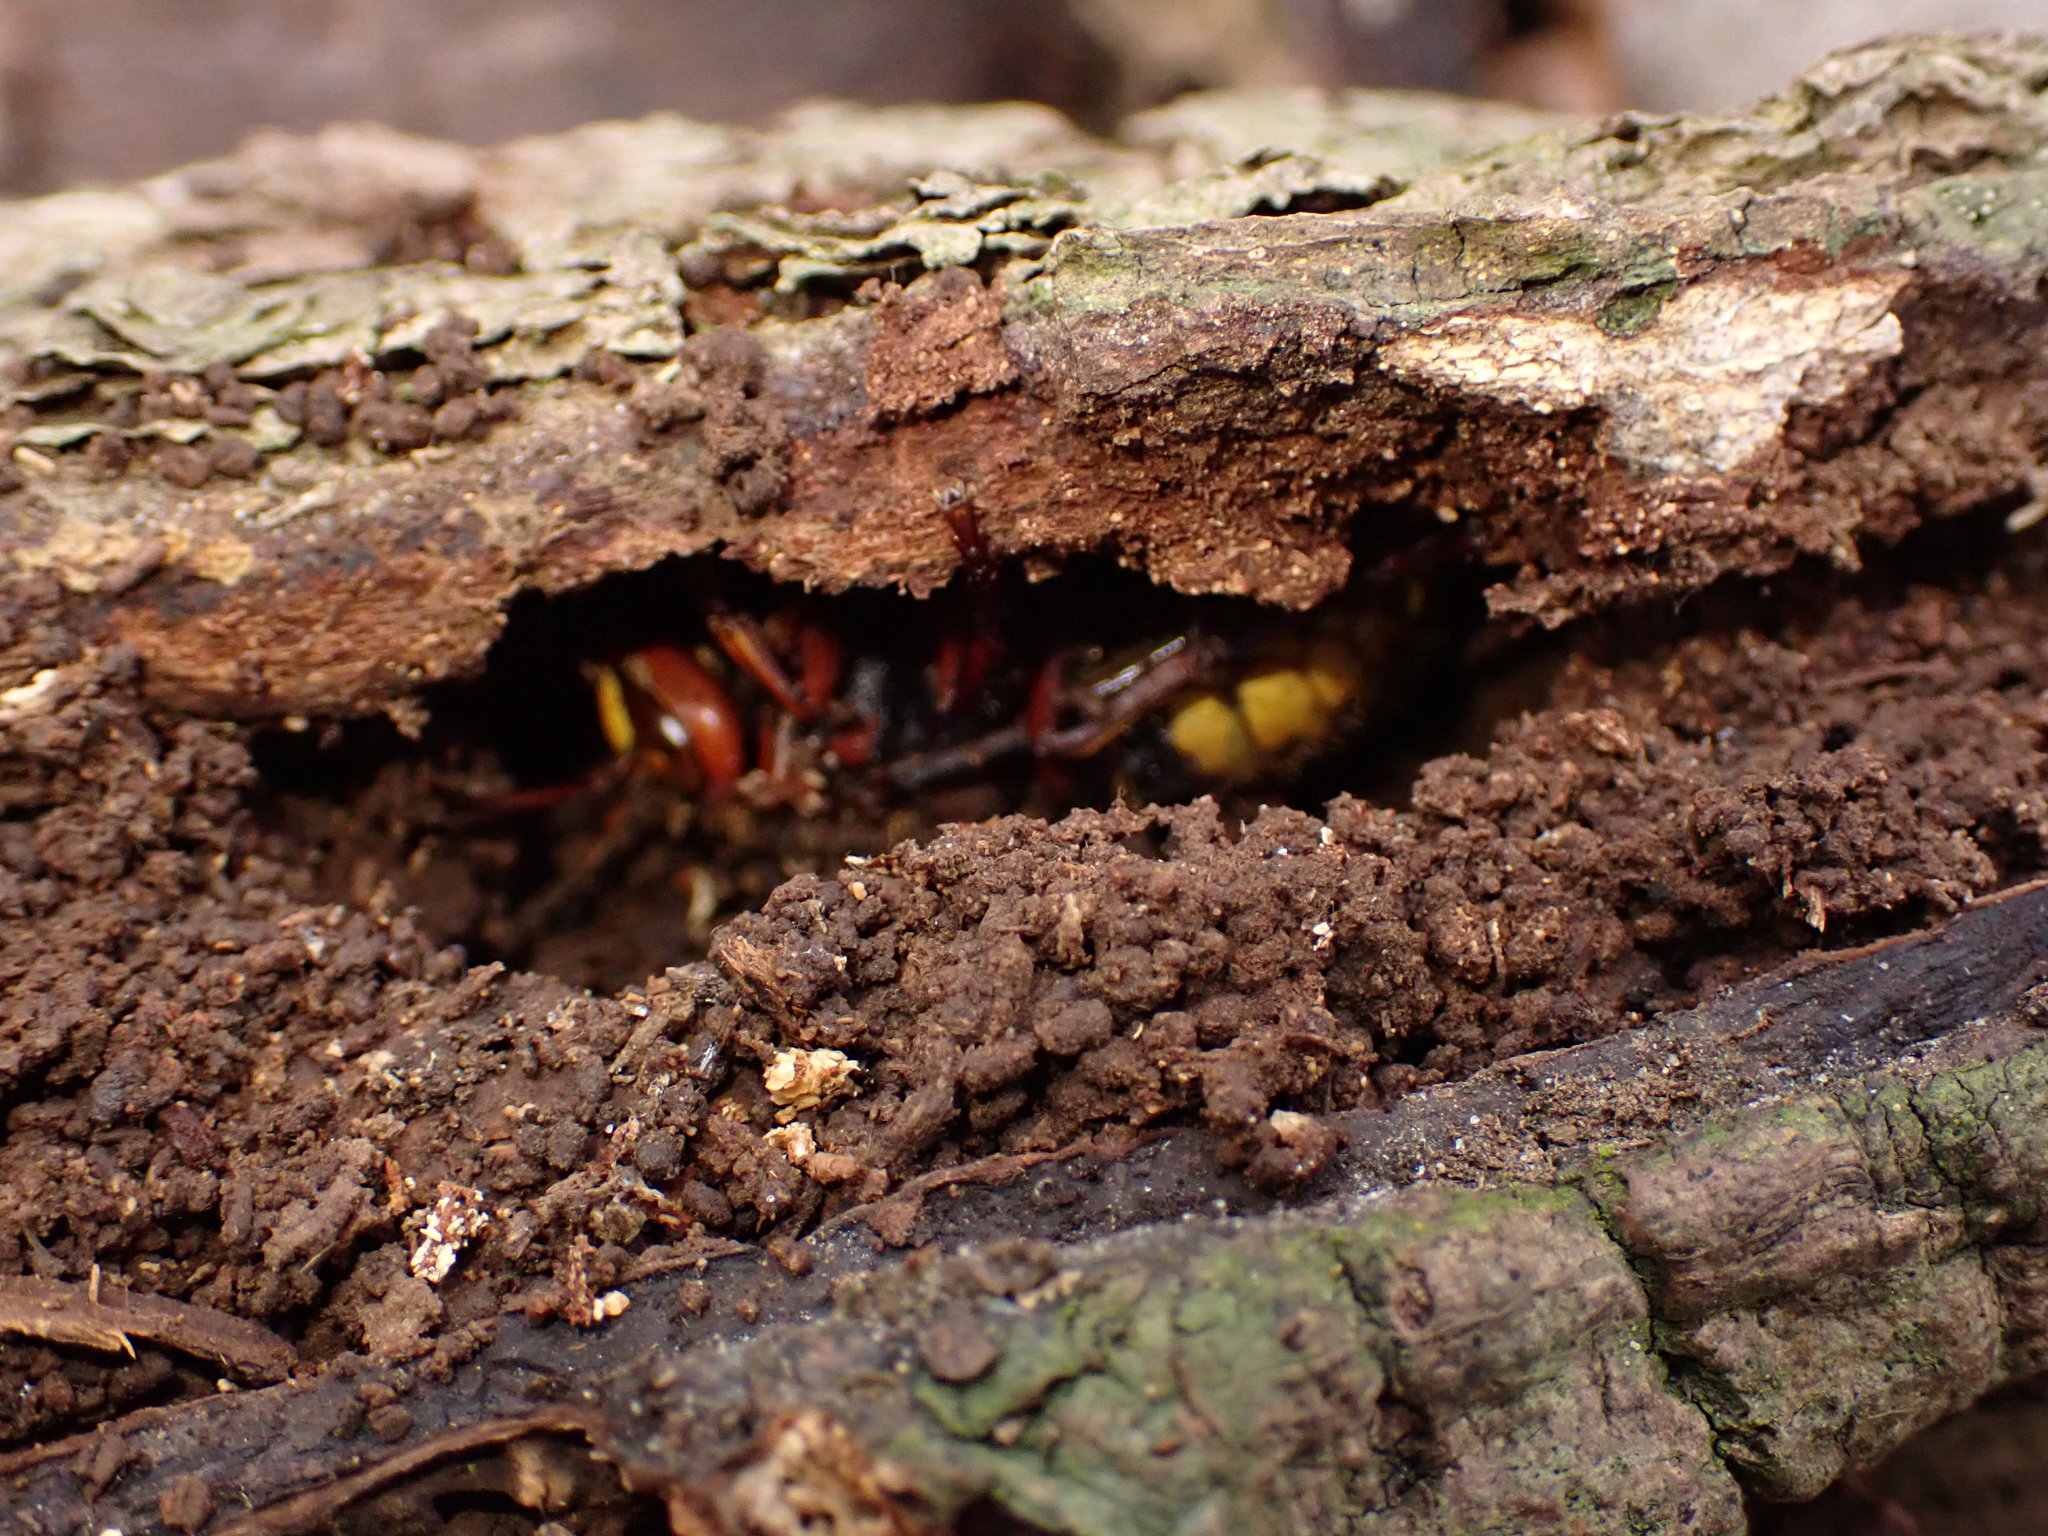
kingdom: Animalia
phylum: Arthropoda
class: Insecta
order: Hymenoptera
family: Vespidae
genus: Vespa
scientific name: Vespa crabro
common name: Hornet
